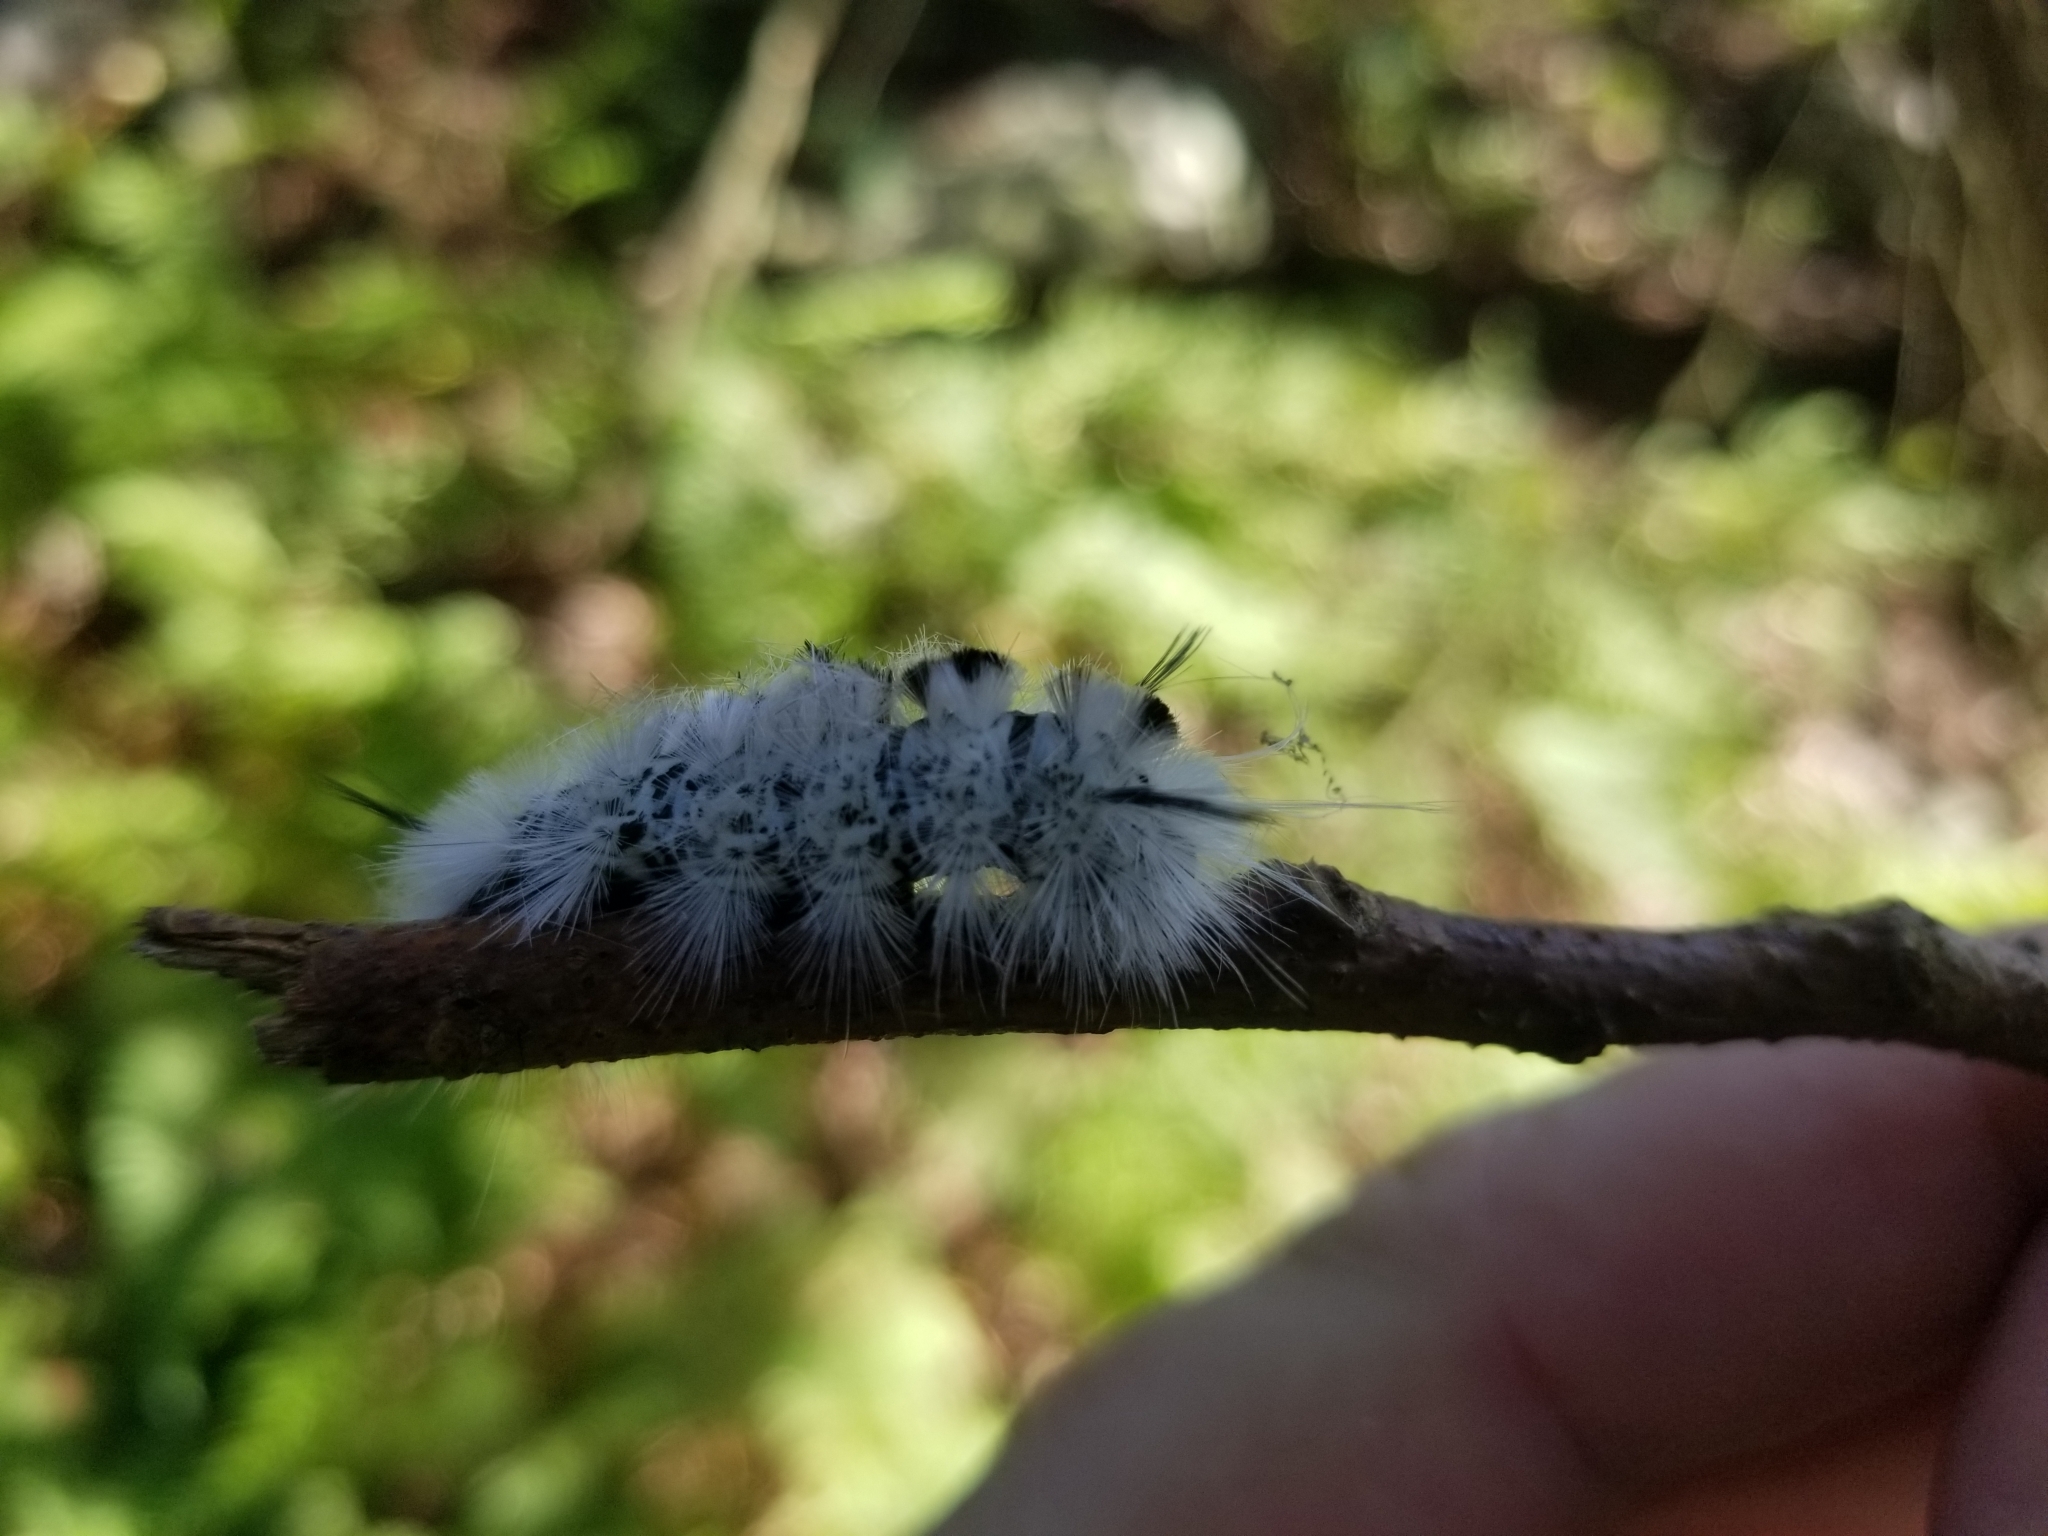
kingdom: Animalia
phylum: Arthropoda
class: Insecta
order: Lepidoptera
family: Erebidae
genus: Lophocampa
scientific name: Lophocampa caryae
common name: Hickory tussock moth
